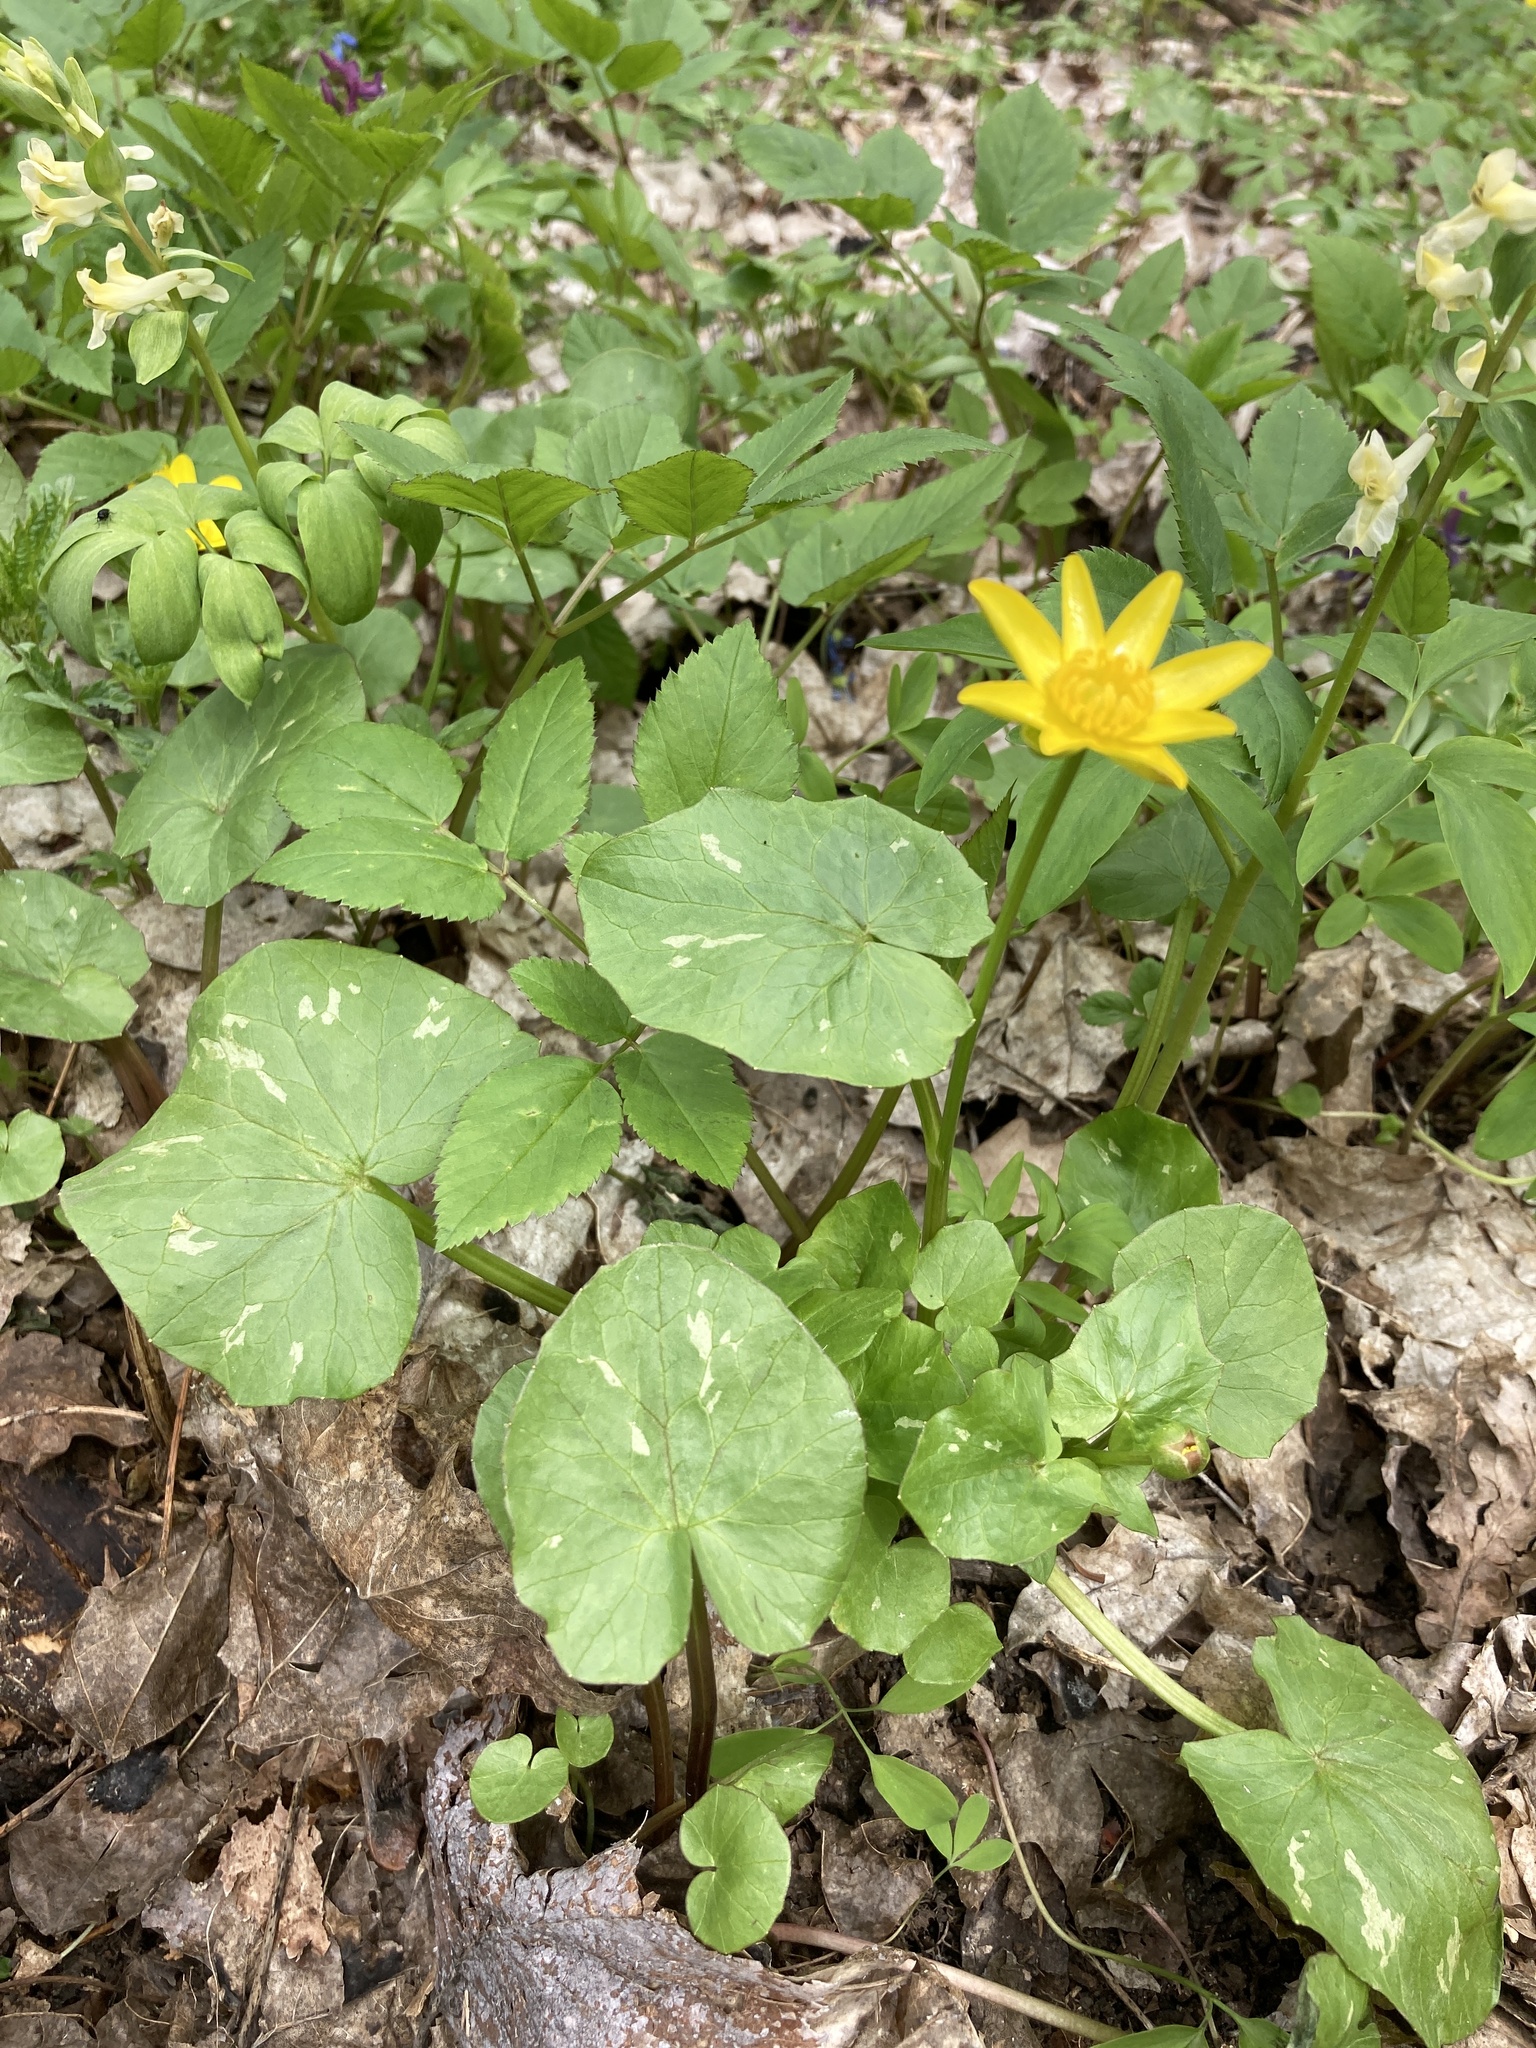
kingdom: Plantae
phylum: Tracheophyta
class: Magnoliopsida
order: Ranunculales
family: Ranunculaceae
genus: Ficaria
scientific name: Ficaria verna
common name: Lesser celandine
